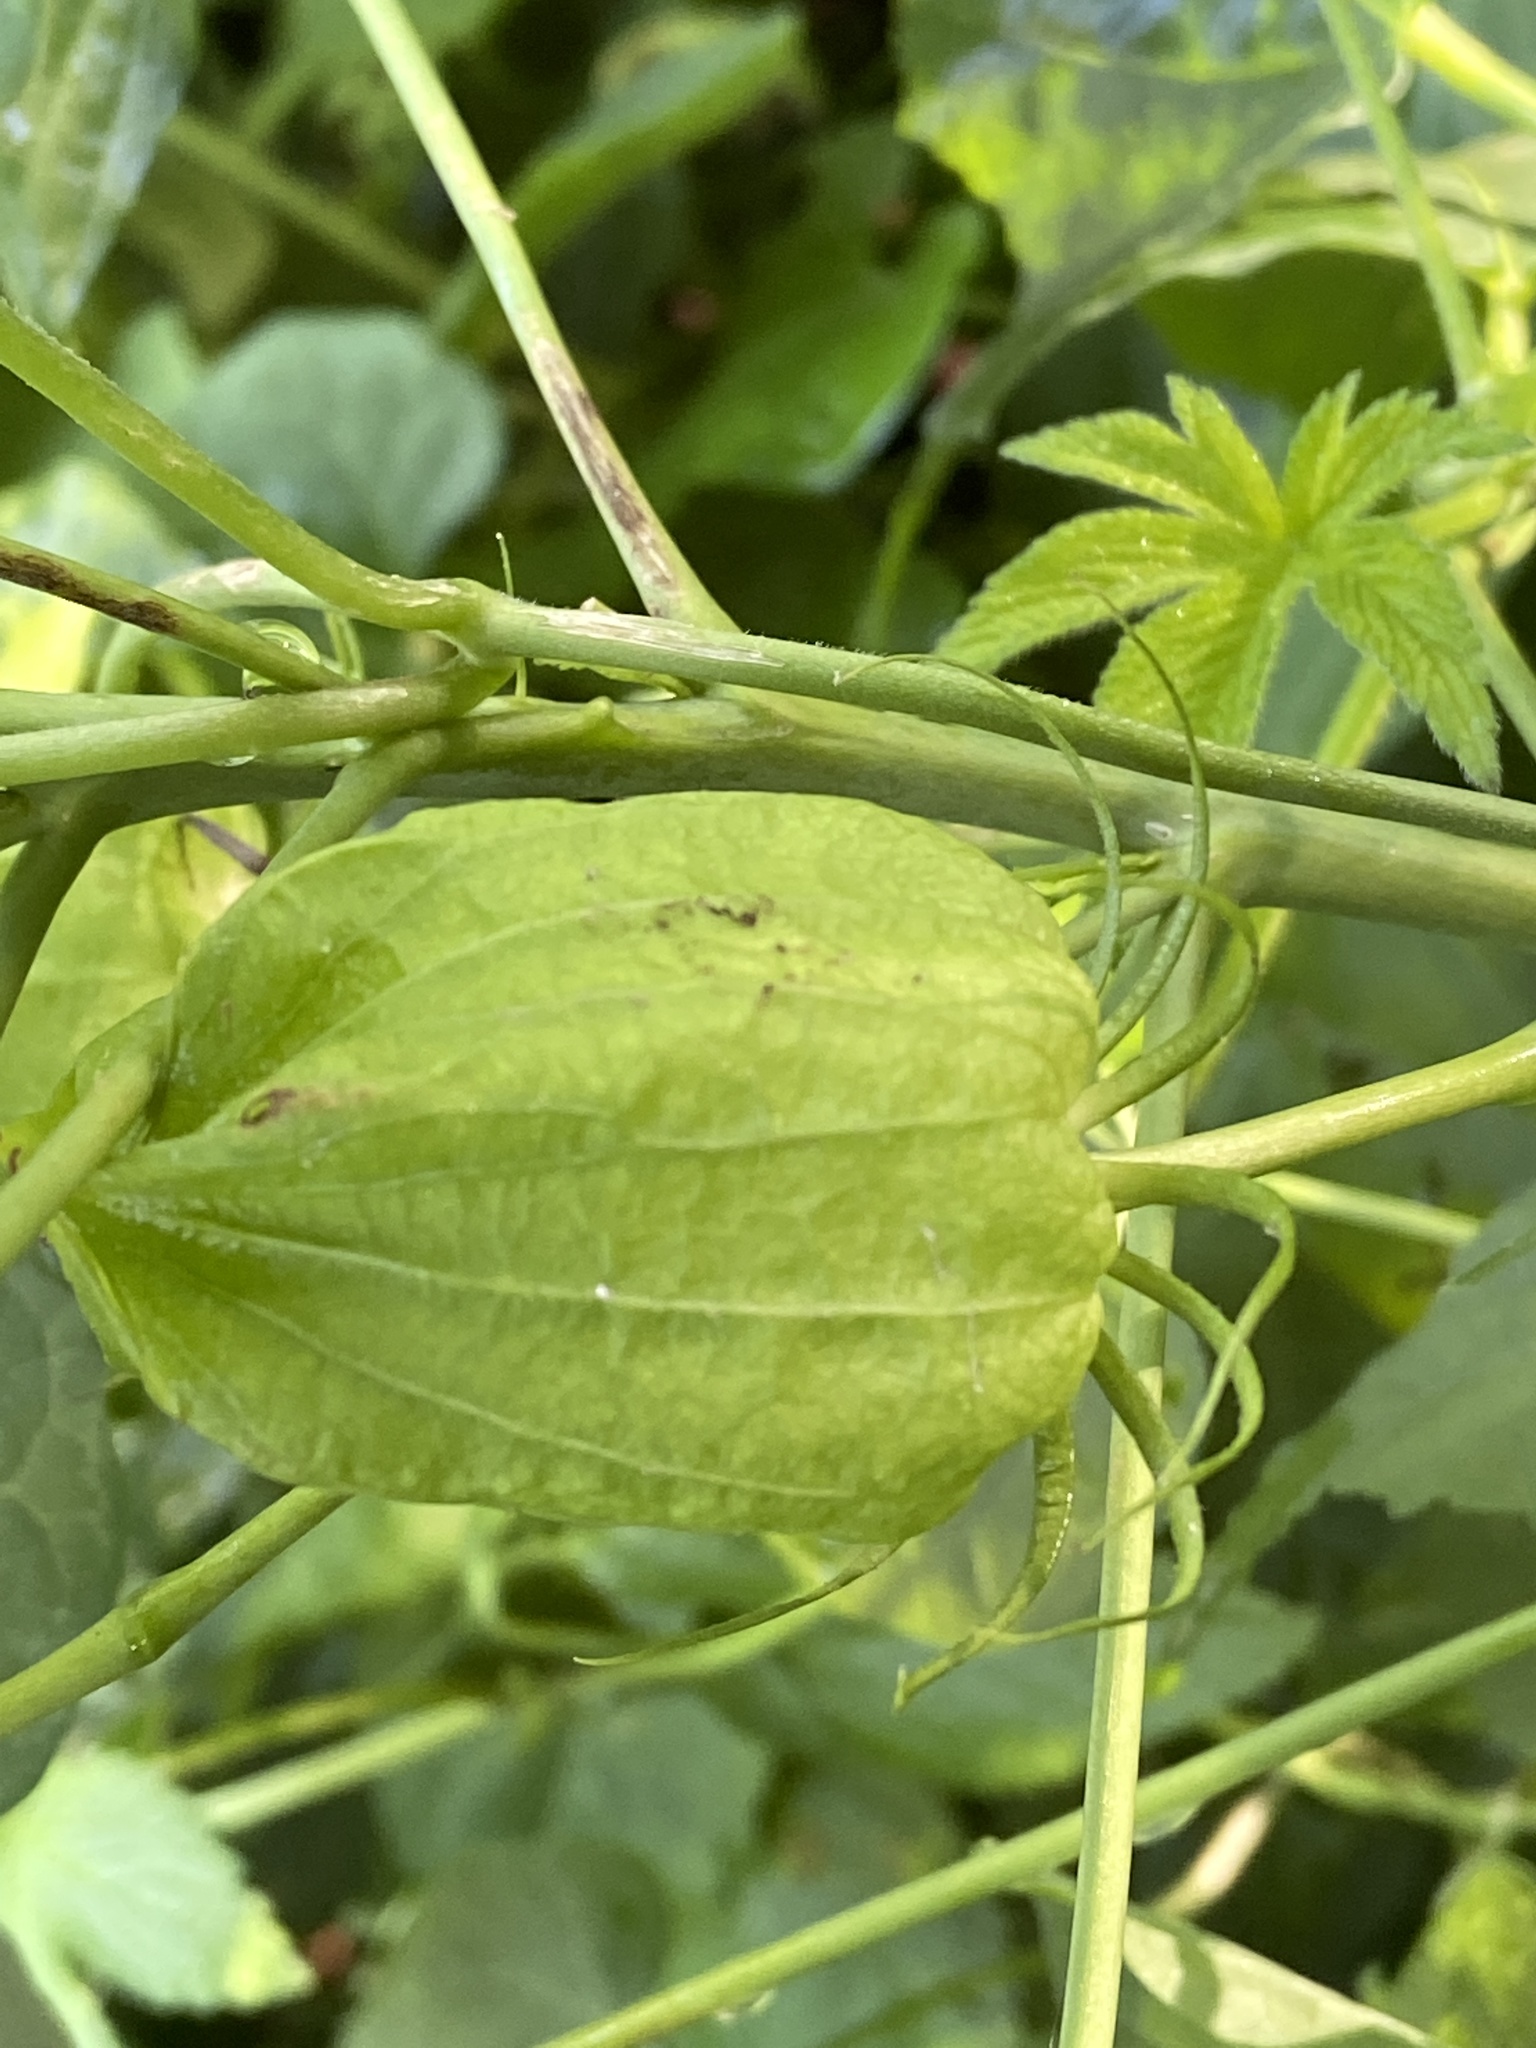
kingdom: Plantae
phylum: Tracheophyta
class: Magnoliopsida
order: Malvales
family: Malvaceae
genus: Hibiscus
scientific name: Hibiscus laevis
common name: Scarlet rose-mallow
